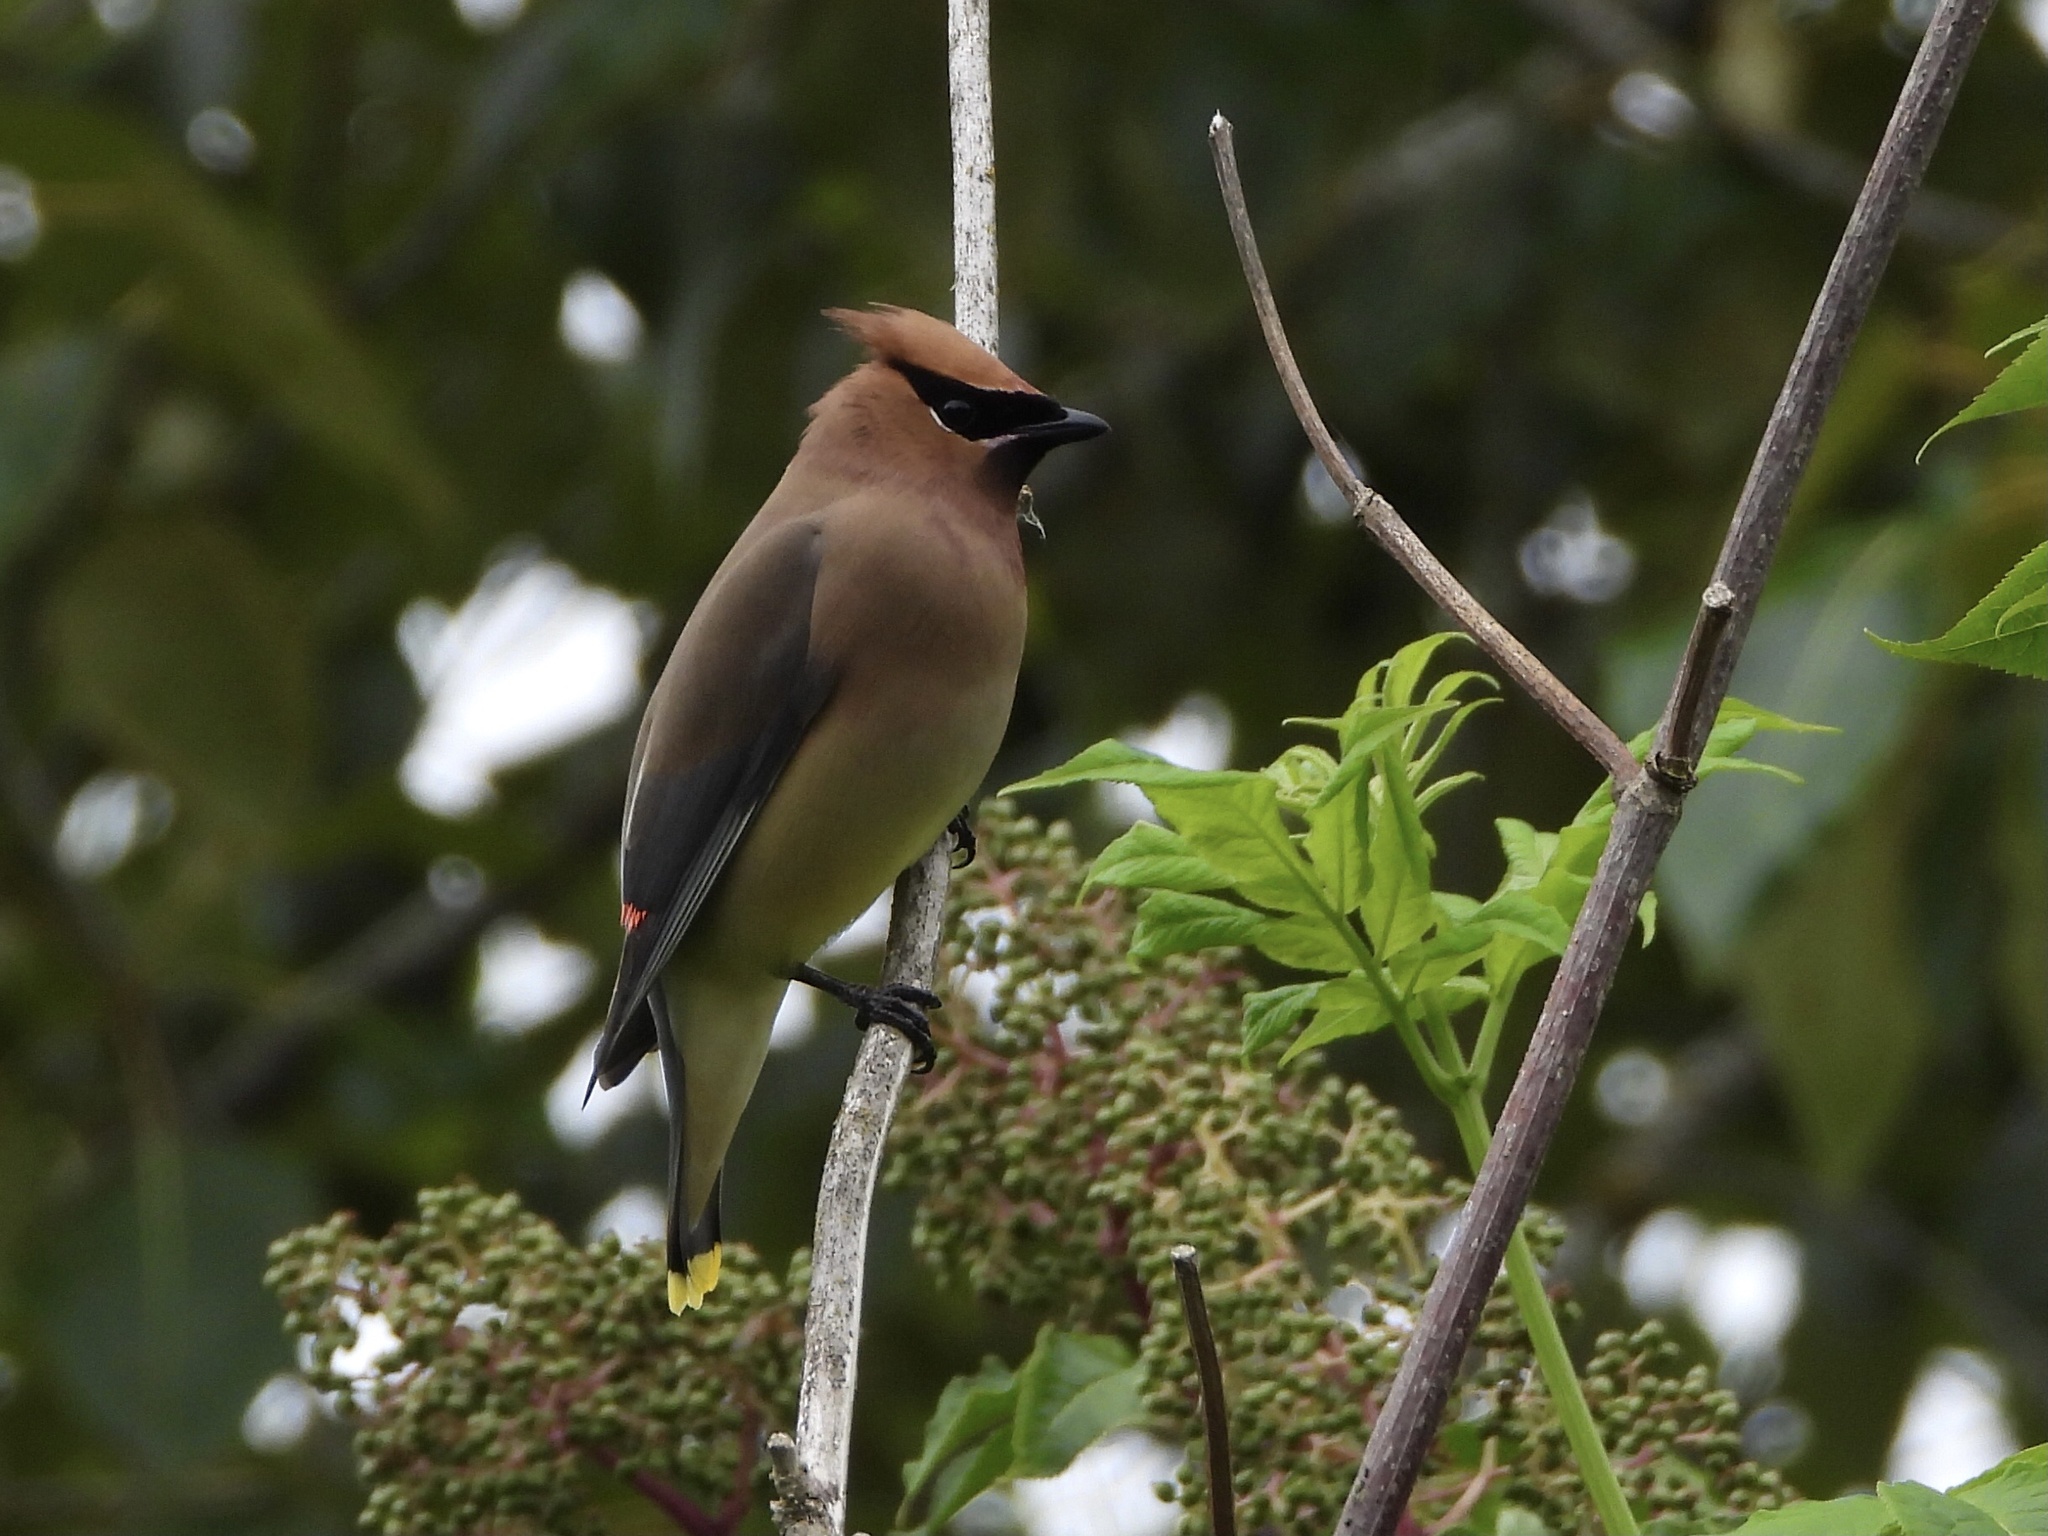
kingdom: Animalia
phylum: Chordata
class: Aves
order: Passeriformes
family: Bombycillidae
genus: Bombycilla
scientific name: Bombycilla cedrorum
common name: Cedar waxwing
